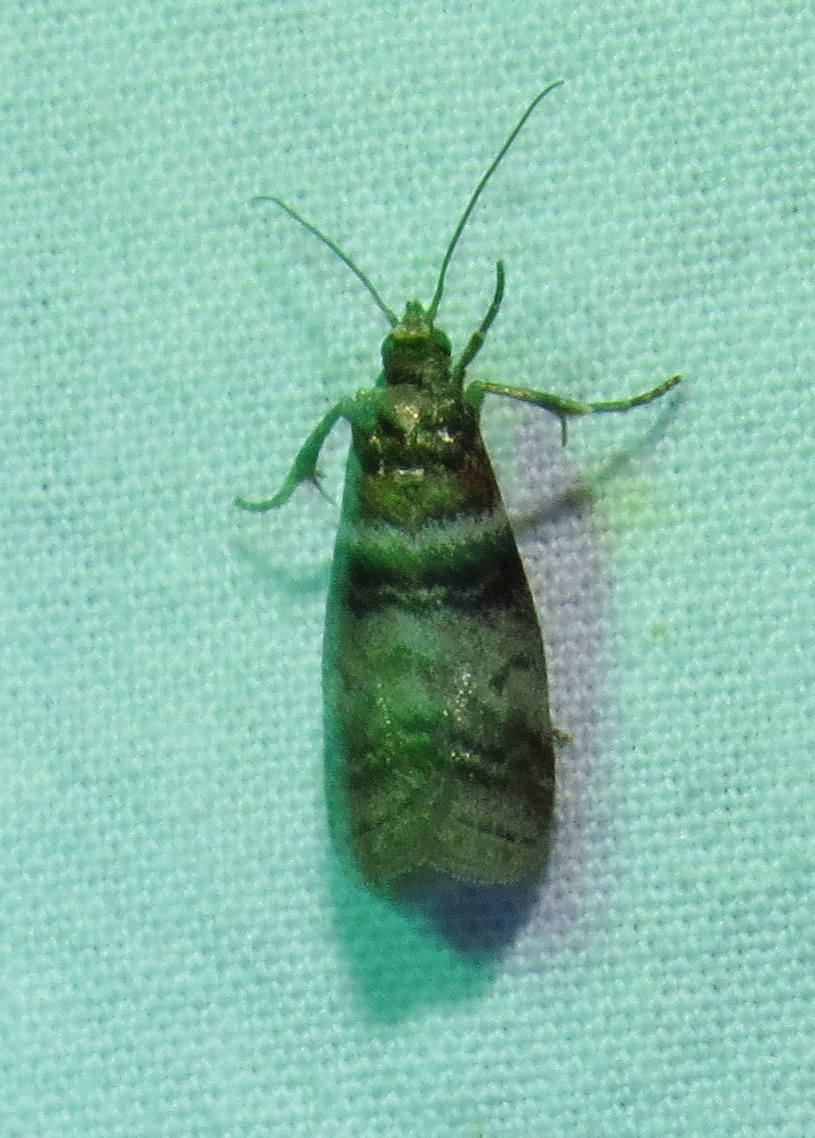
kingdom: Animalia
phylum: Arthropoda
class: Insecta
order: Lepidoptera
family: Pyralidae
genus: Sciota
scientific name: Sciota uvinella
